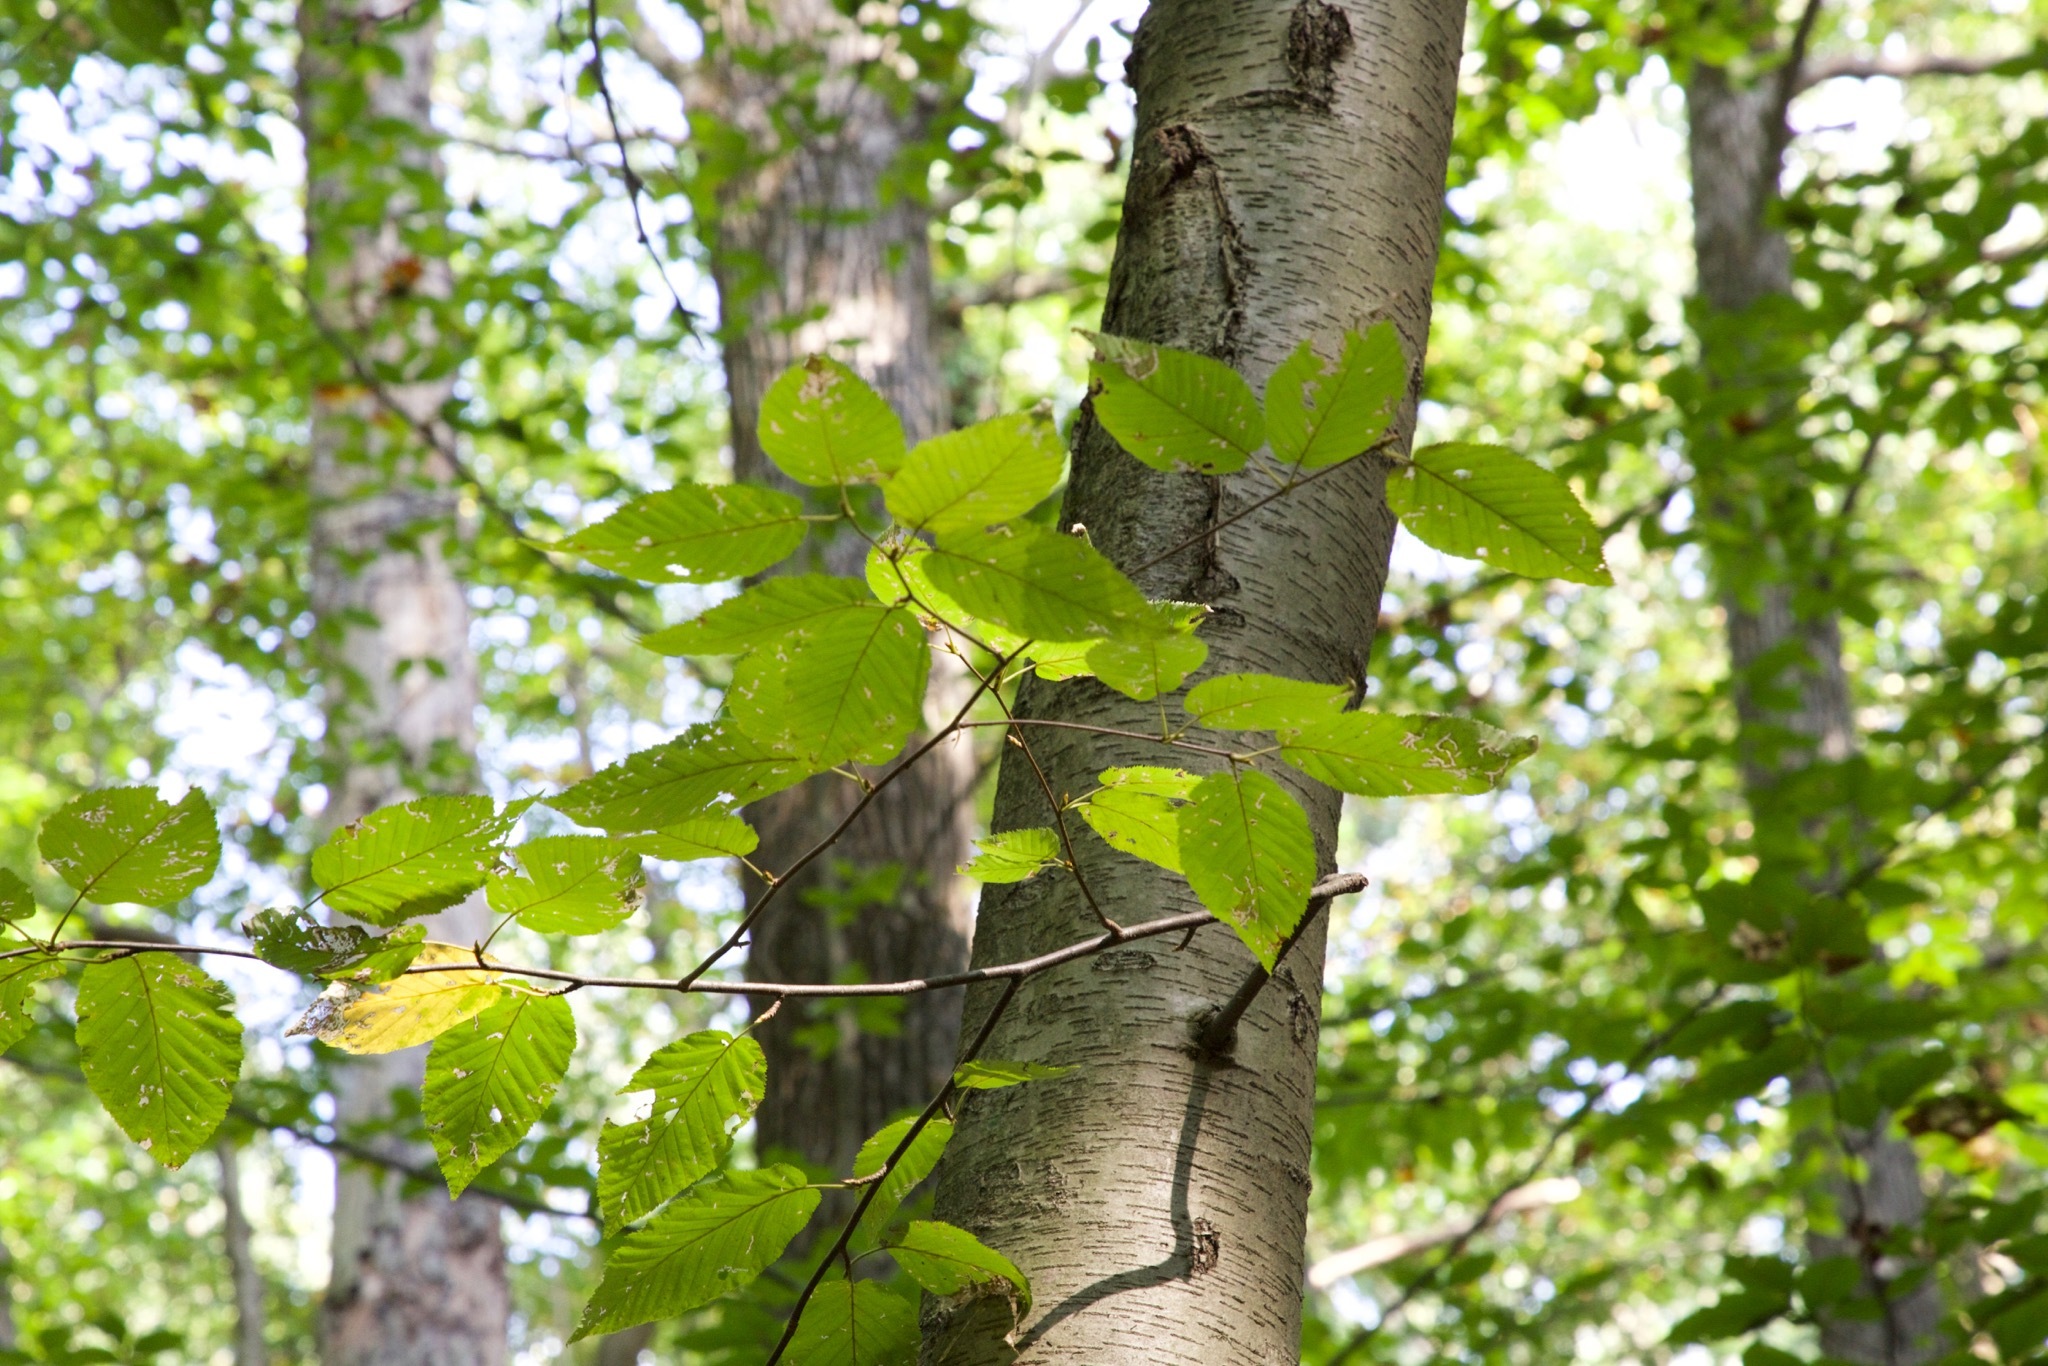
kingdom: Plantae
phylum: Tracheophyta
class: Magnoliopsida
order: Fagales
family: Betulaceae
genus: Betula
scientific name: Betula lenta
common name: Black birch
